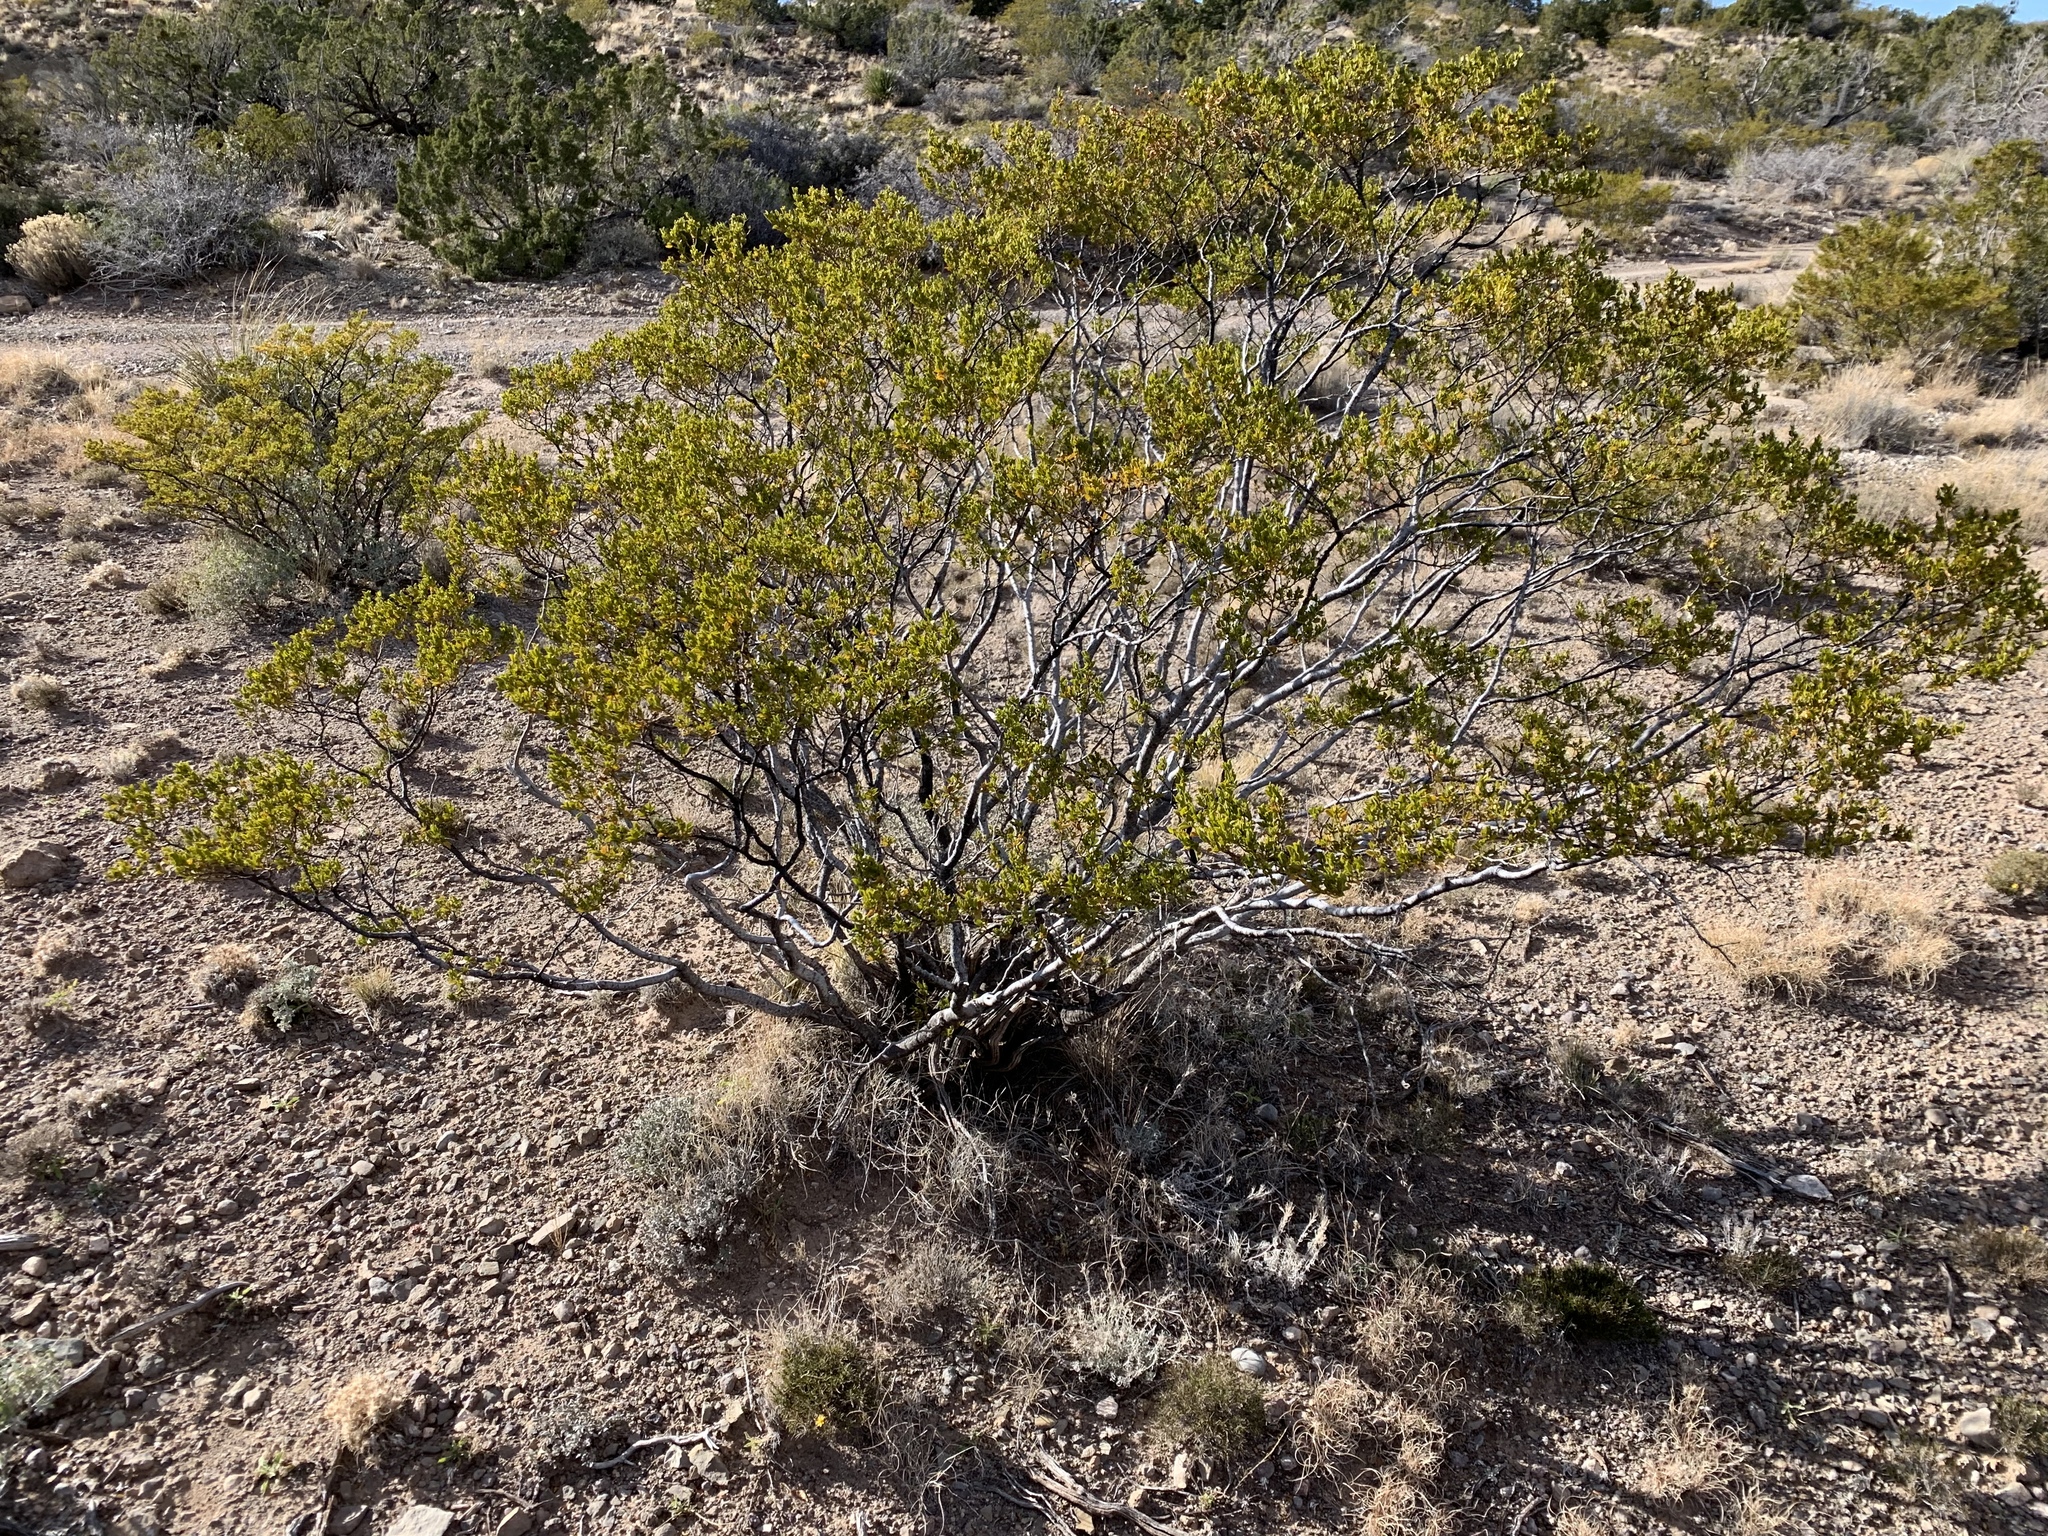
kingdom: Plantae
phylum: Tracheophyta
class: Magnoliopsida
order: Zygophyllales
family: Zygophyllaceae
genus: Larrea
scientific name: Larrea tridentata
